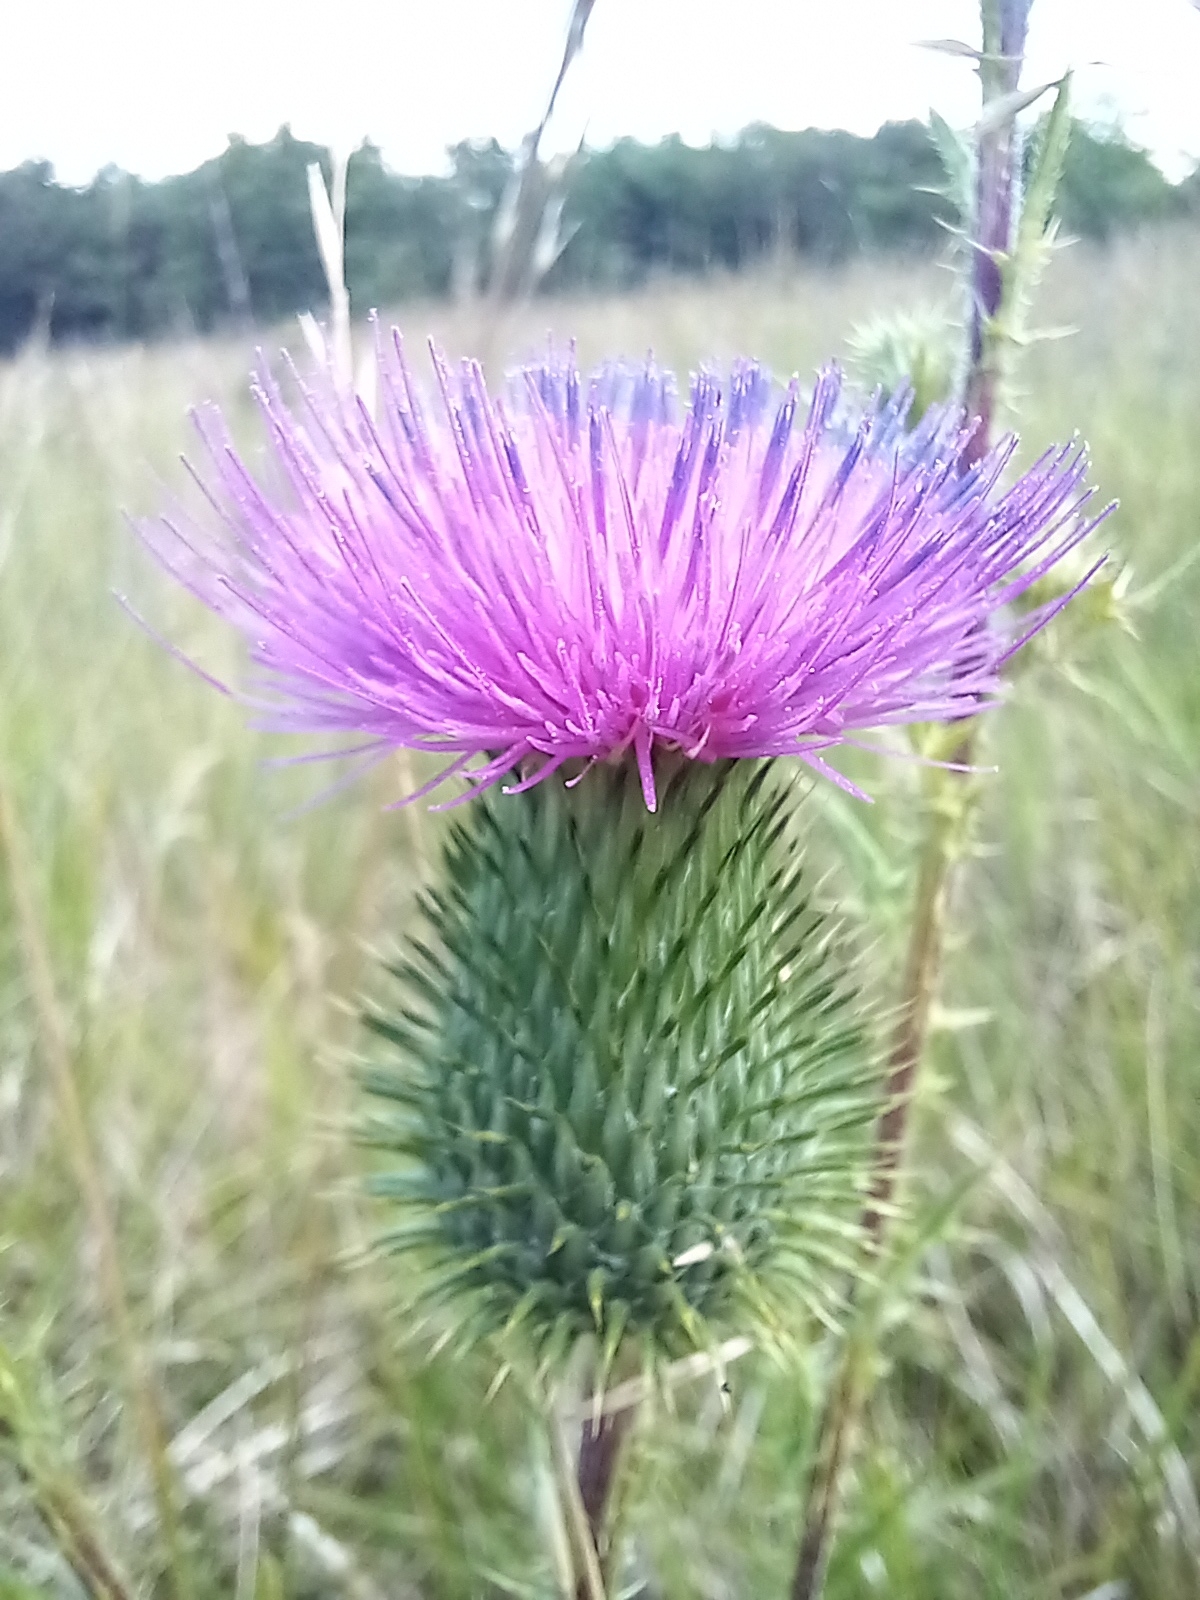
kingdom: Plantae
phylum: Tracheophyta
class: Magnoliopsida
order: Asterales
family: Asteraceae
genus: Cirsium
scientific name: Cirsium vulgare
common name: Bull thistle
